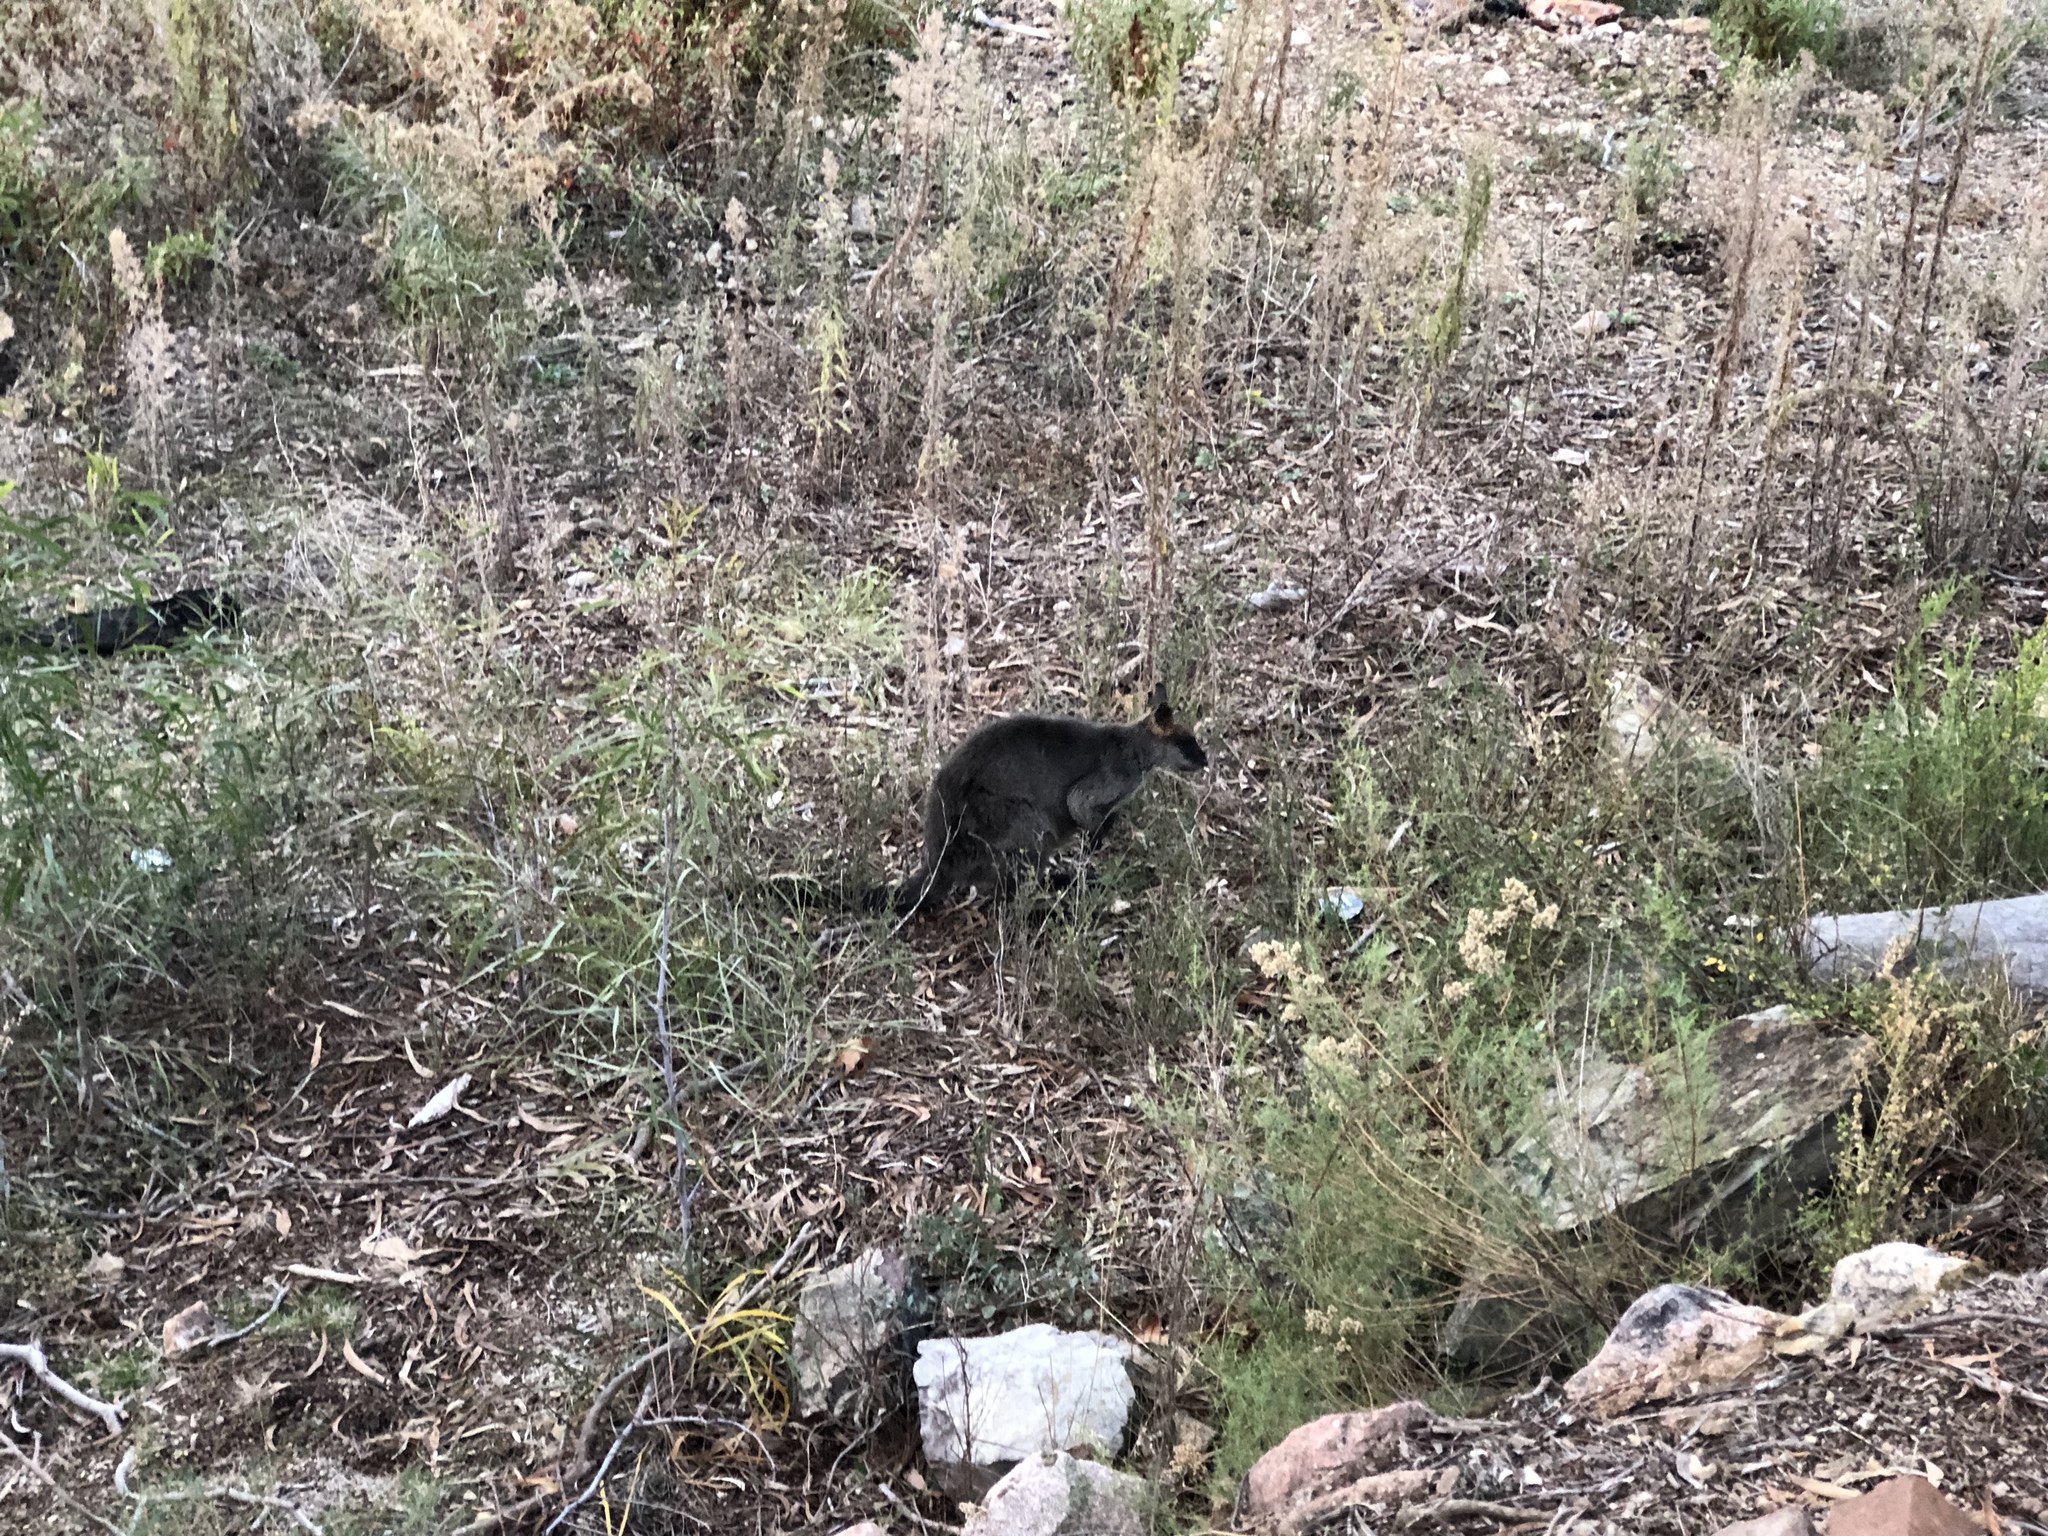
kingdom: Animalia
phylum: Chordata
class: Mammalia
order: Diprotodontia
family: Macropodidae
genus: Wallabia
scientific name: Wallabia bicolor
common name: Swamp wallaby
